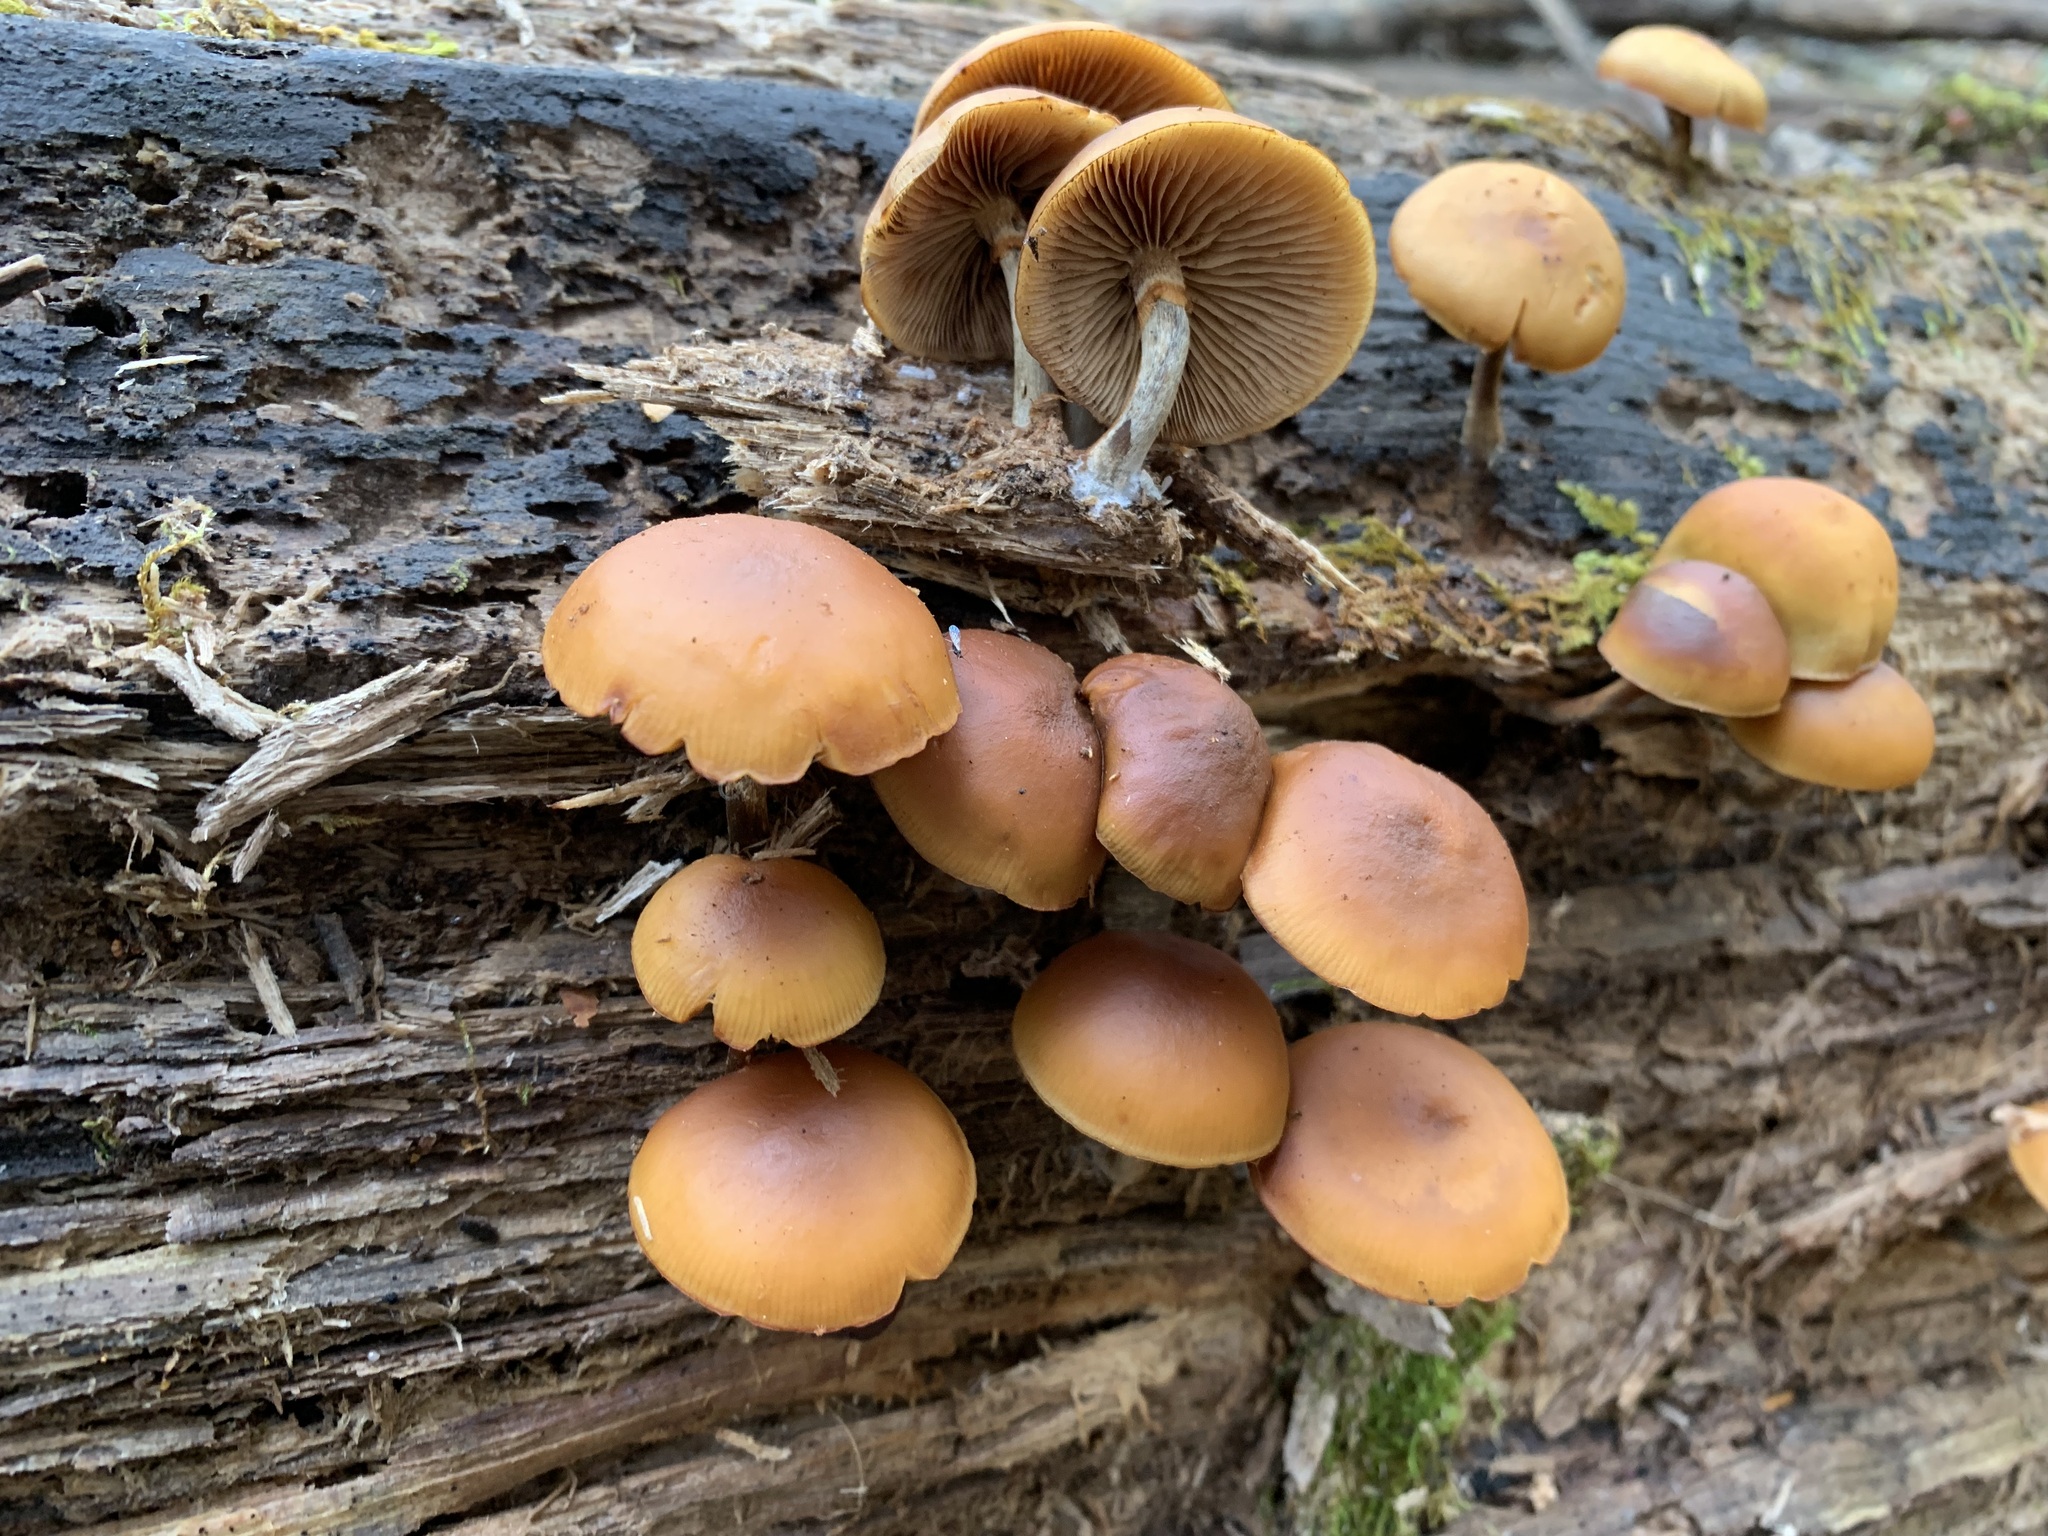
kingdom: Fungi
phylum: Basidiomycota
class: Agaricomycetes
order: Agaricales
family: Hymenogastraceae
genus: Galerina
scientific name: Galerina marginata
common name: Funeral bell
